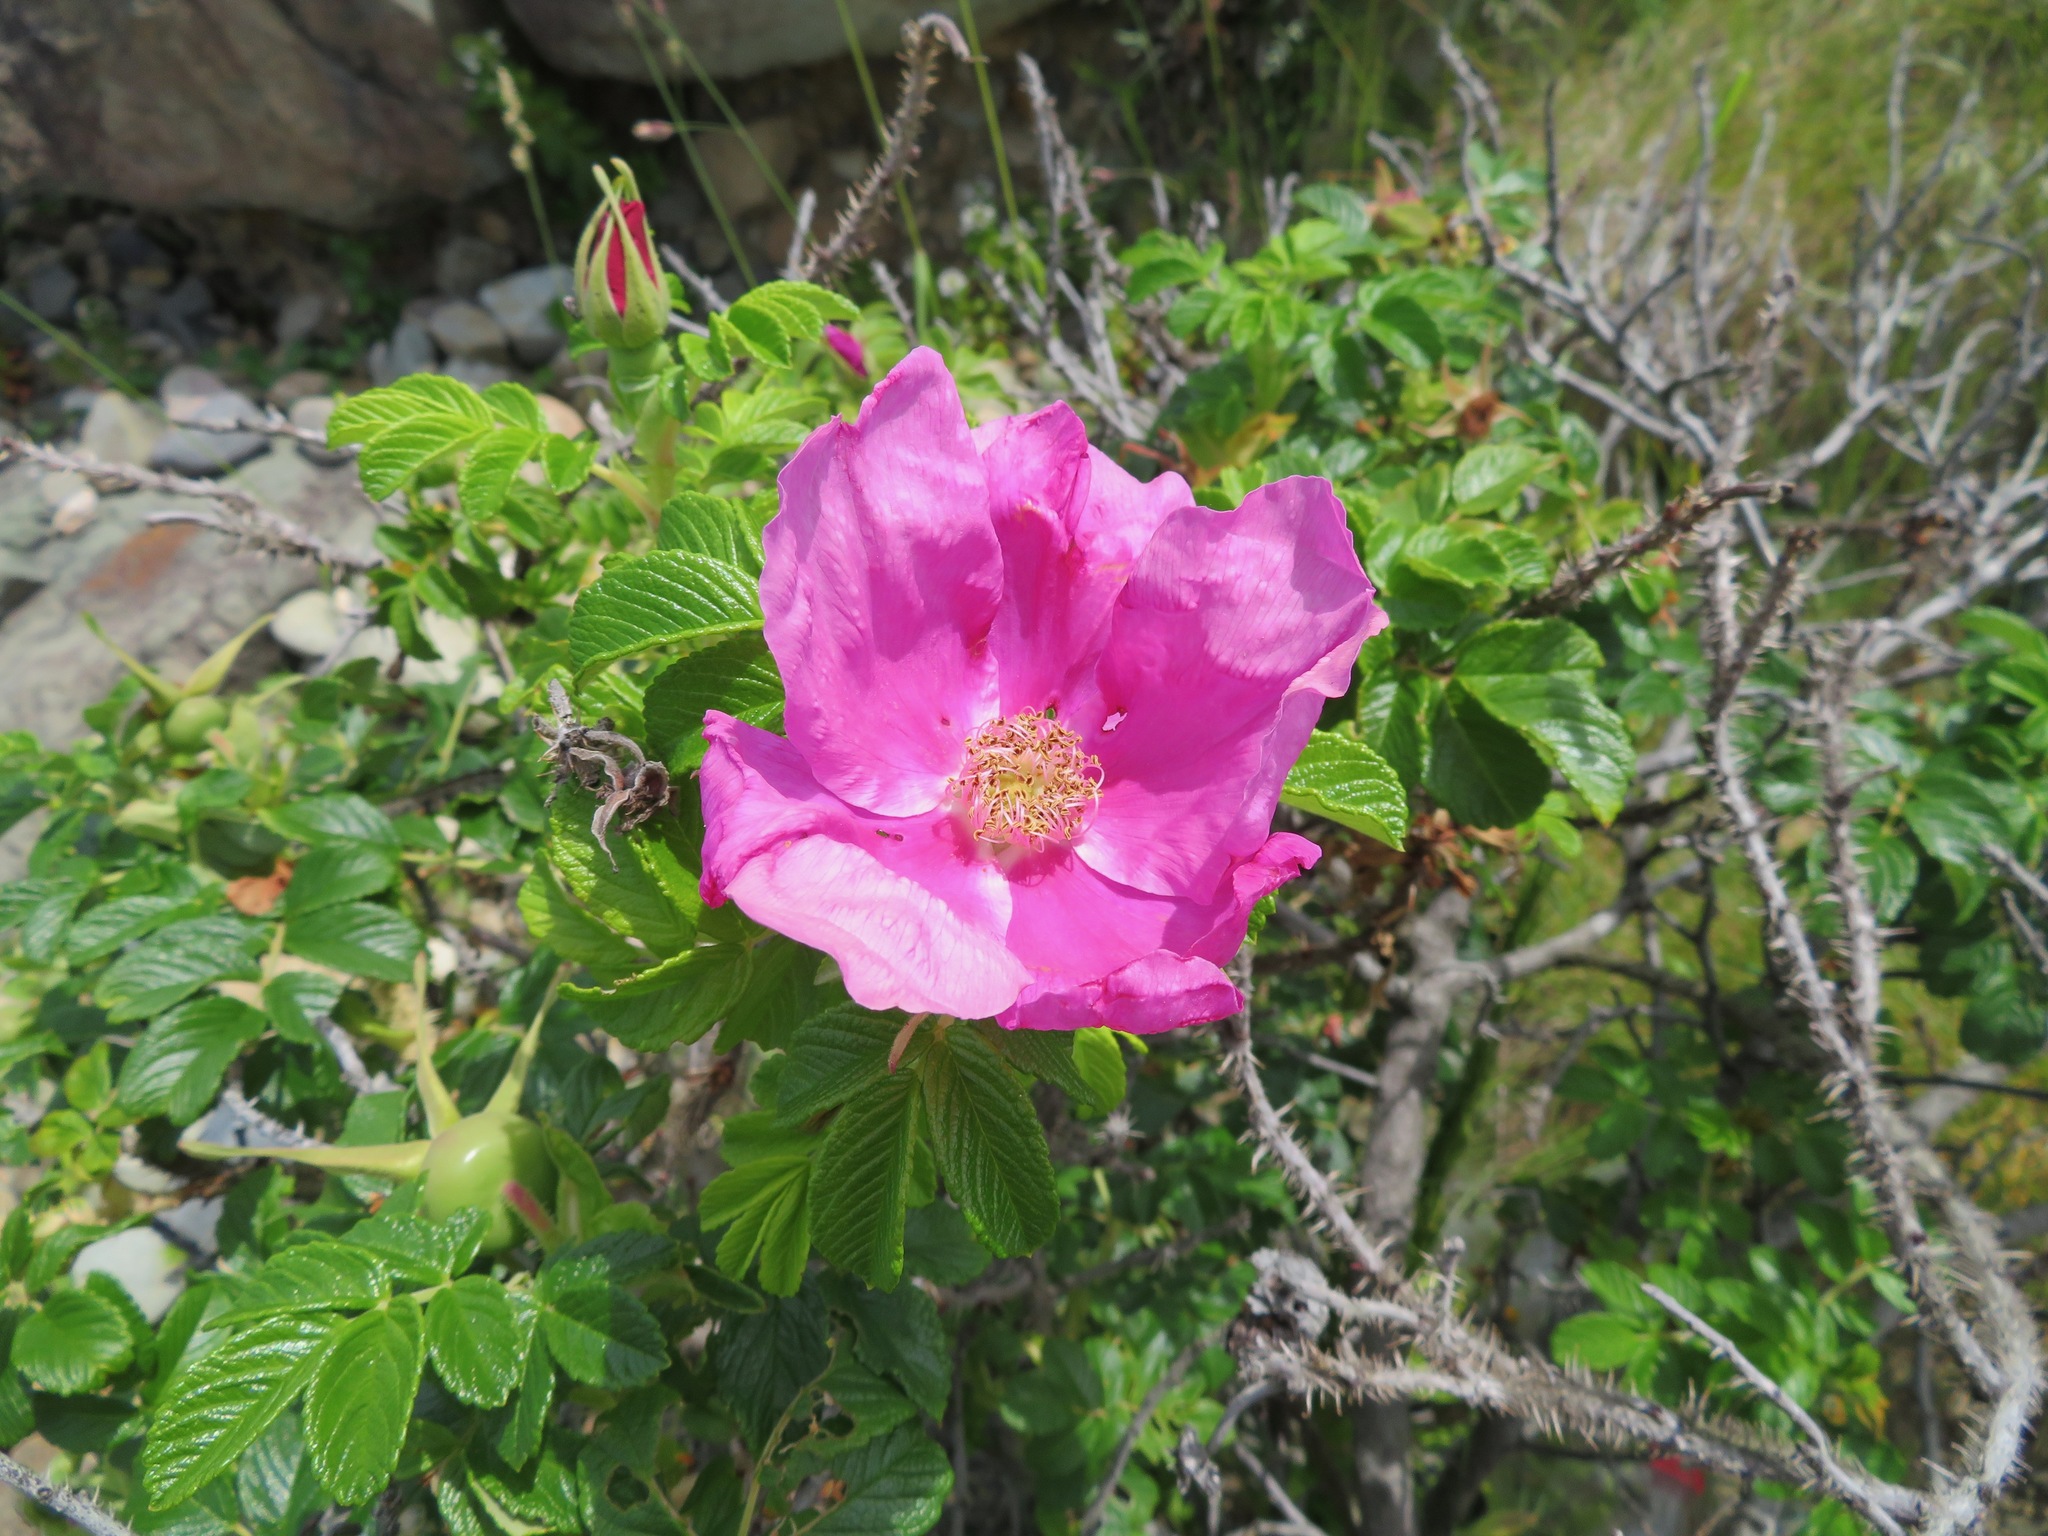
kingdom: Plantae
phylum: Tracheophyta
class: Magnoliopsida
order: Rosales
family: Rosaceae
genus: Rosa
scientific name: Rosa rugosa
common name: Japanese rose
